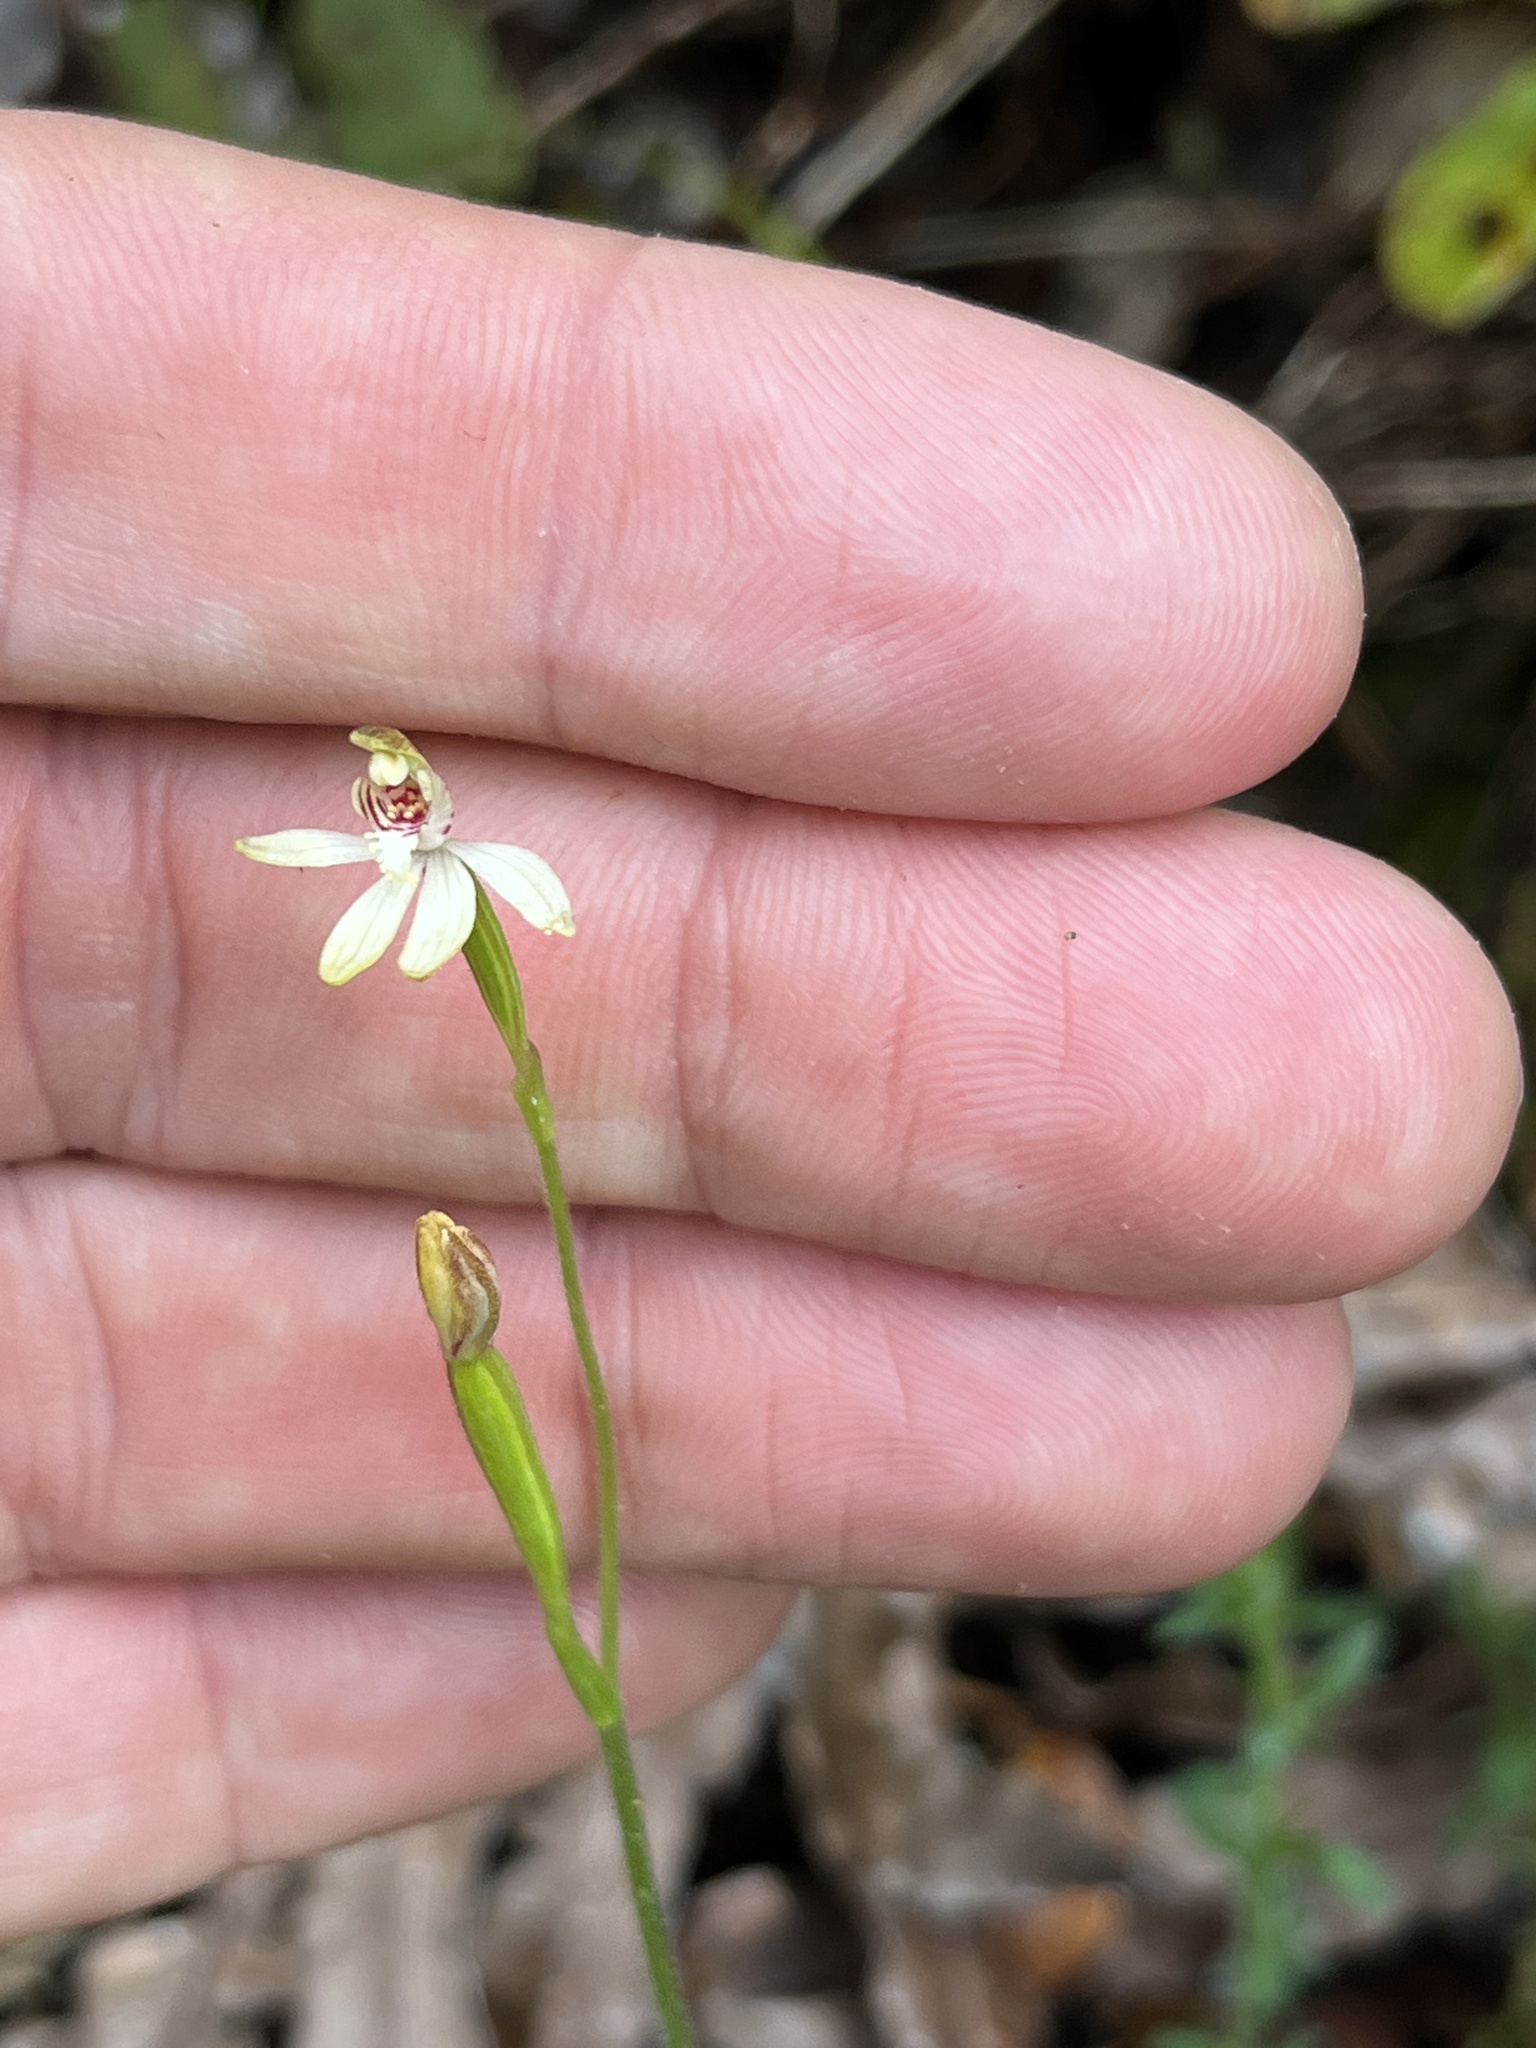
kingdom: Plantae
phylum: Tracheophyta
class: Liliopsida
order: Asparagales
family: Orchidaceae
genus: Caladenia
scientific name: Caladenia chlorostyla
